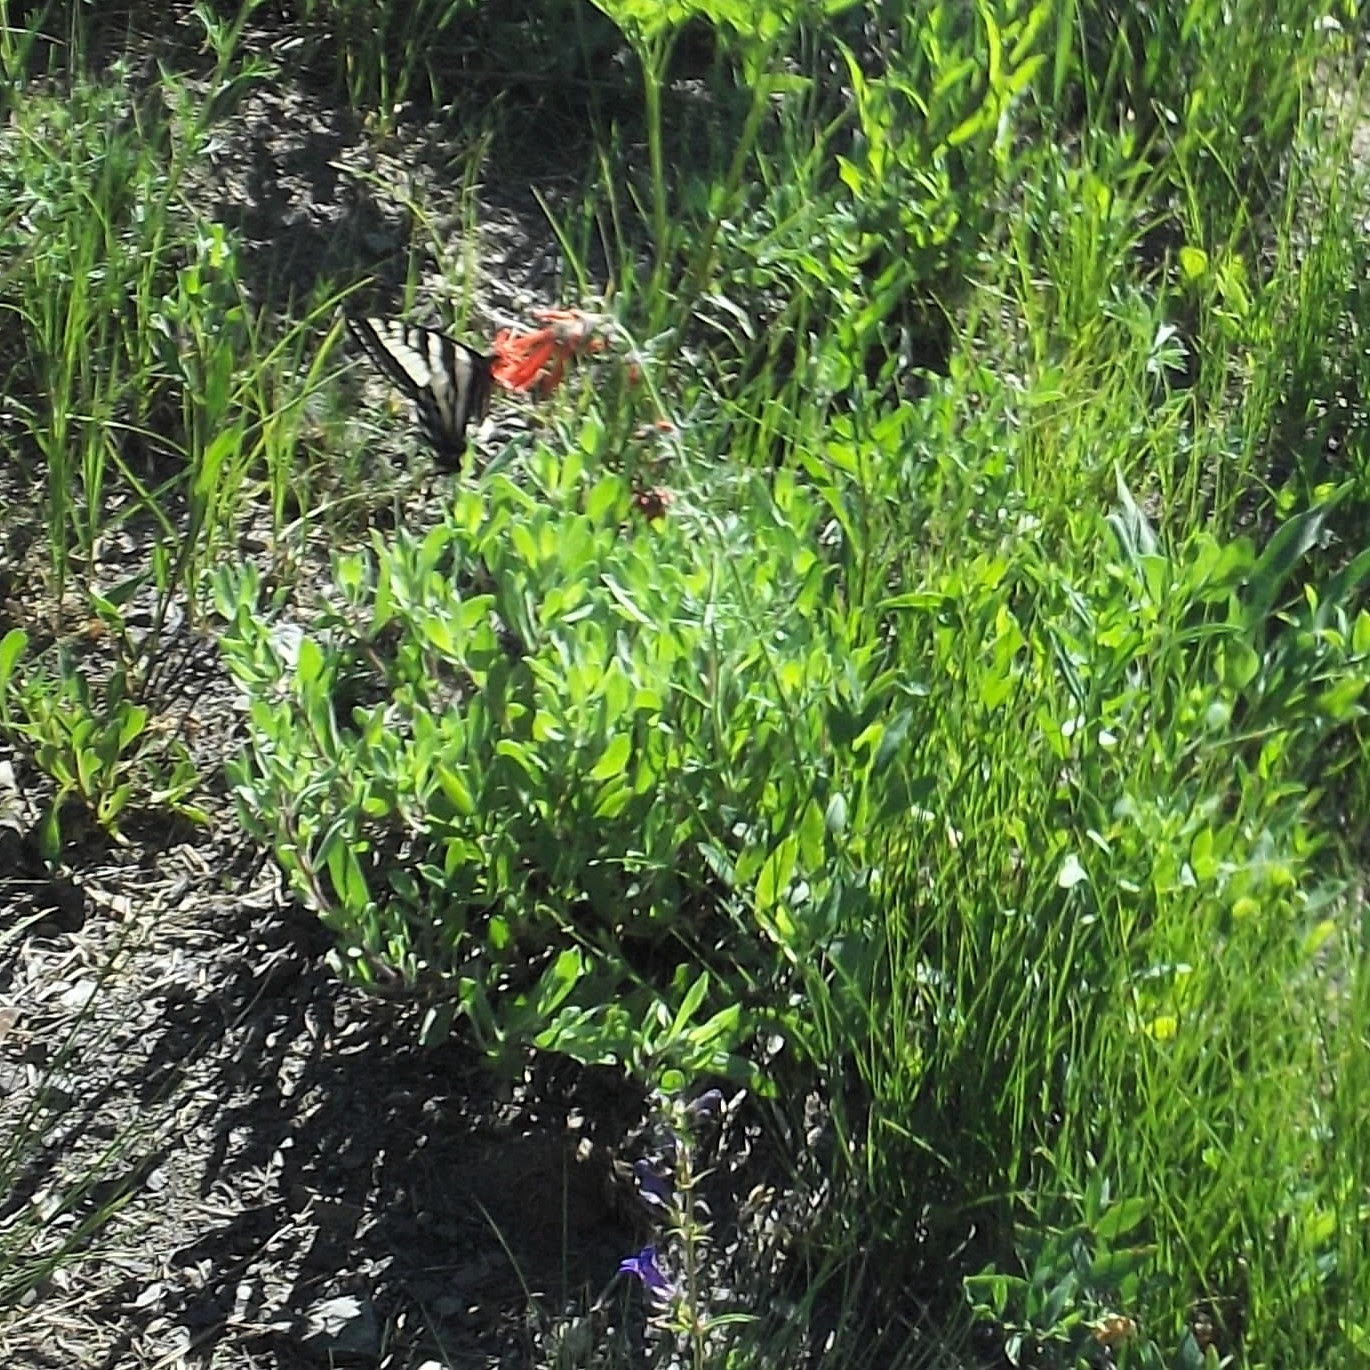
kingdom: Plantae
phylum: Tracheophyta
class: Magnoliopsida
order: Ericales
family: Polemoniaceae
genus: Ipomopsis
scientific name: Ipomopsis aggregata
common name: Scarlet gilia
